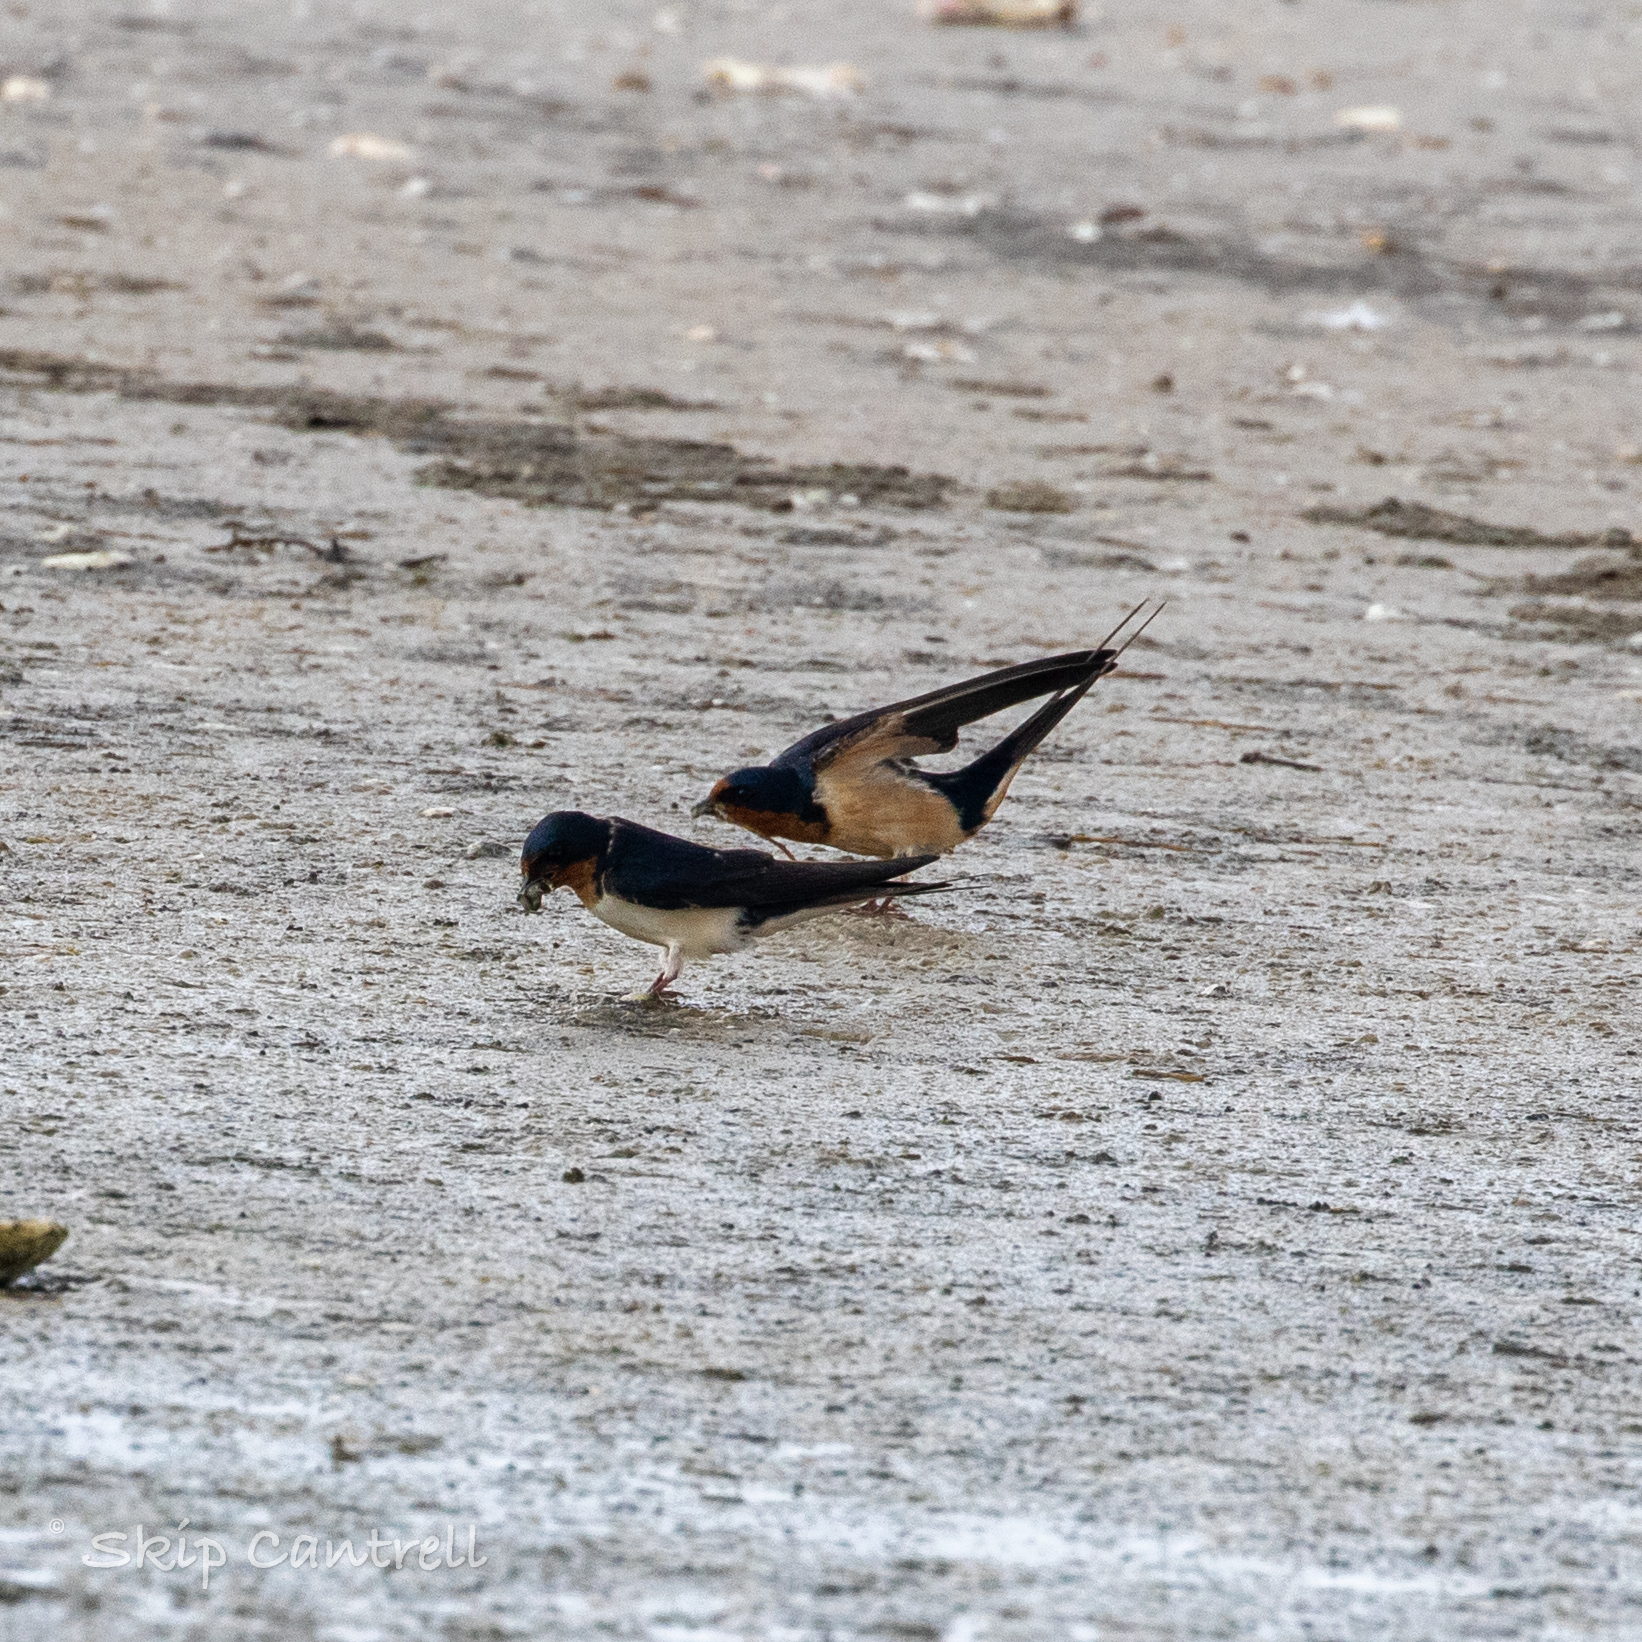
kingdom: Animalia
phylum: Chordata
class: Aves
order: Passeriformes
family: Hirundinidae
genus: Hirundo
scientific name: Hirundo rustica
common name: Barn swallow
